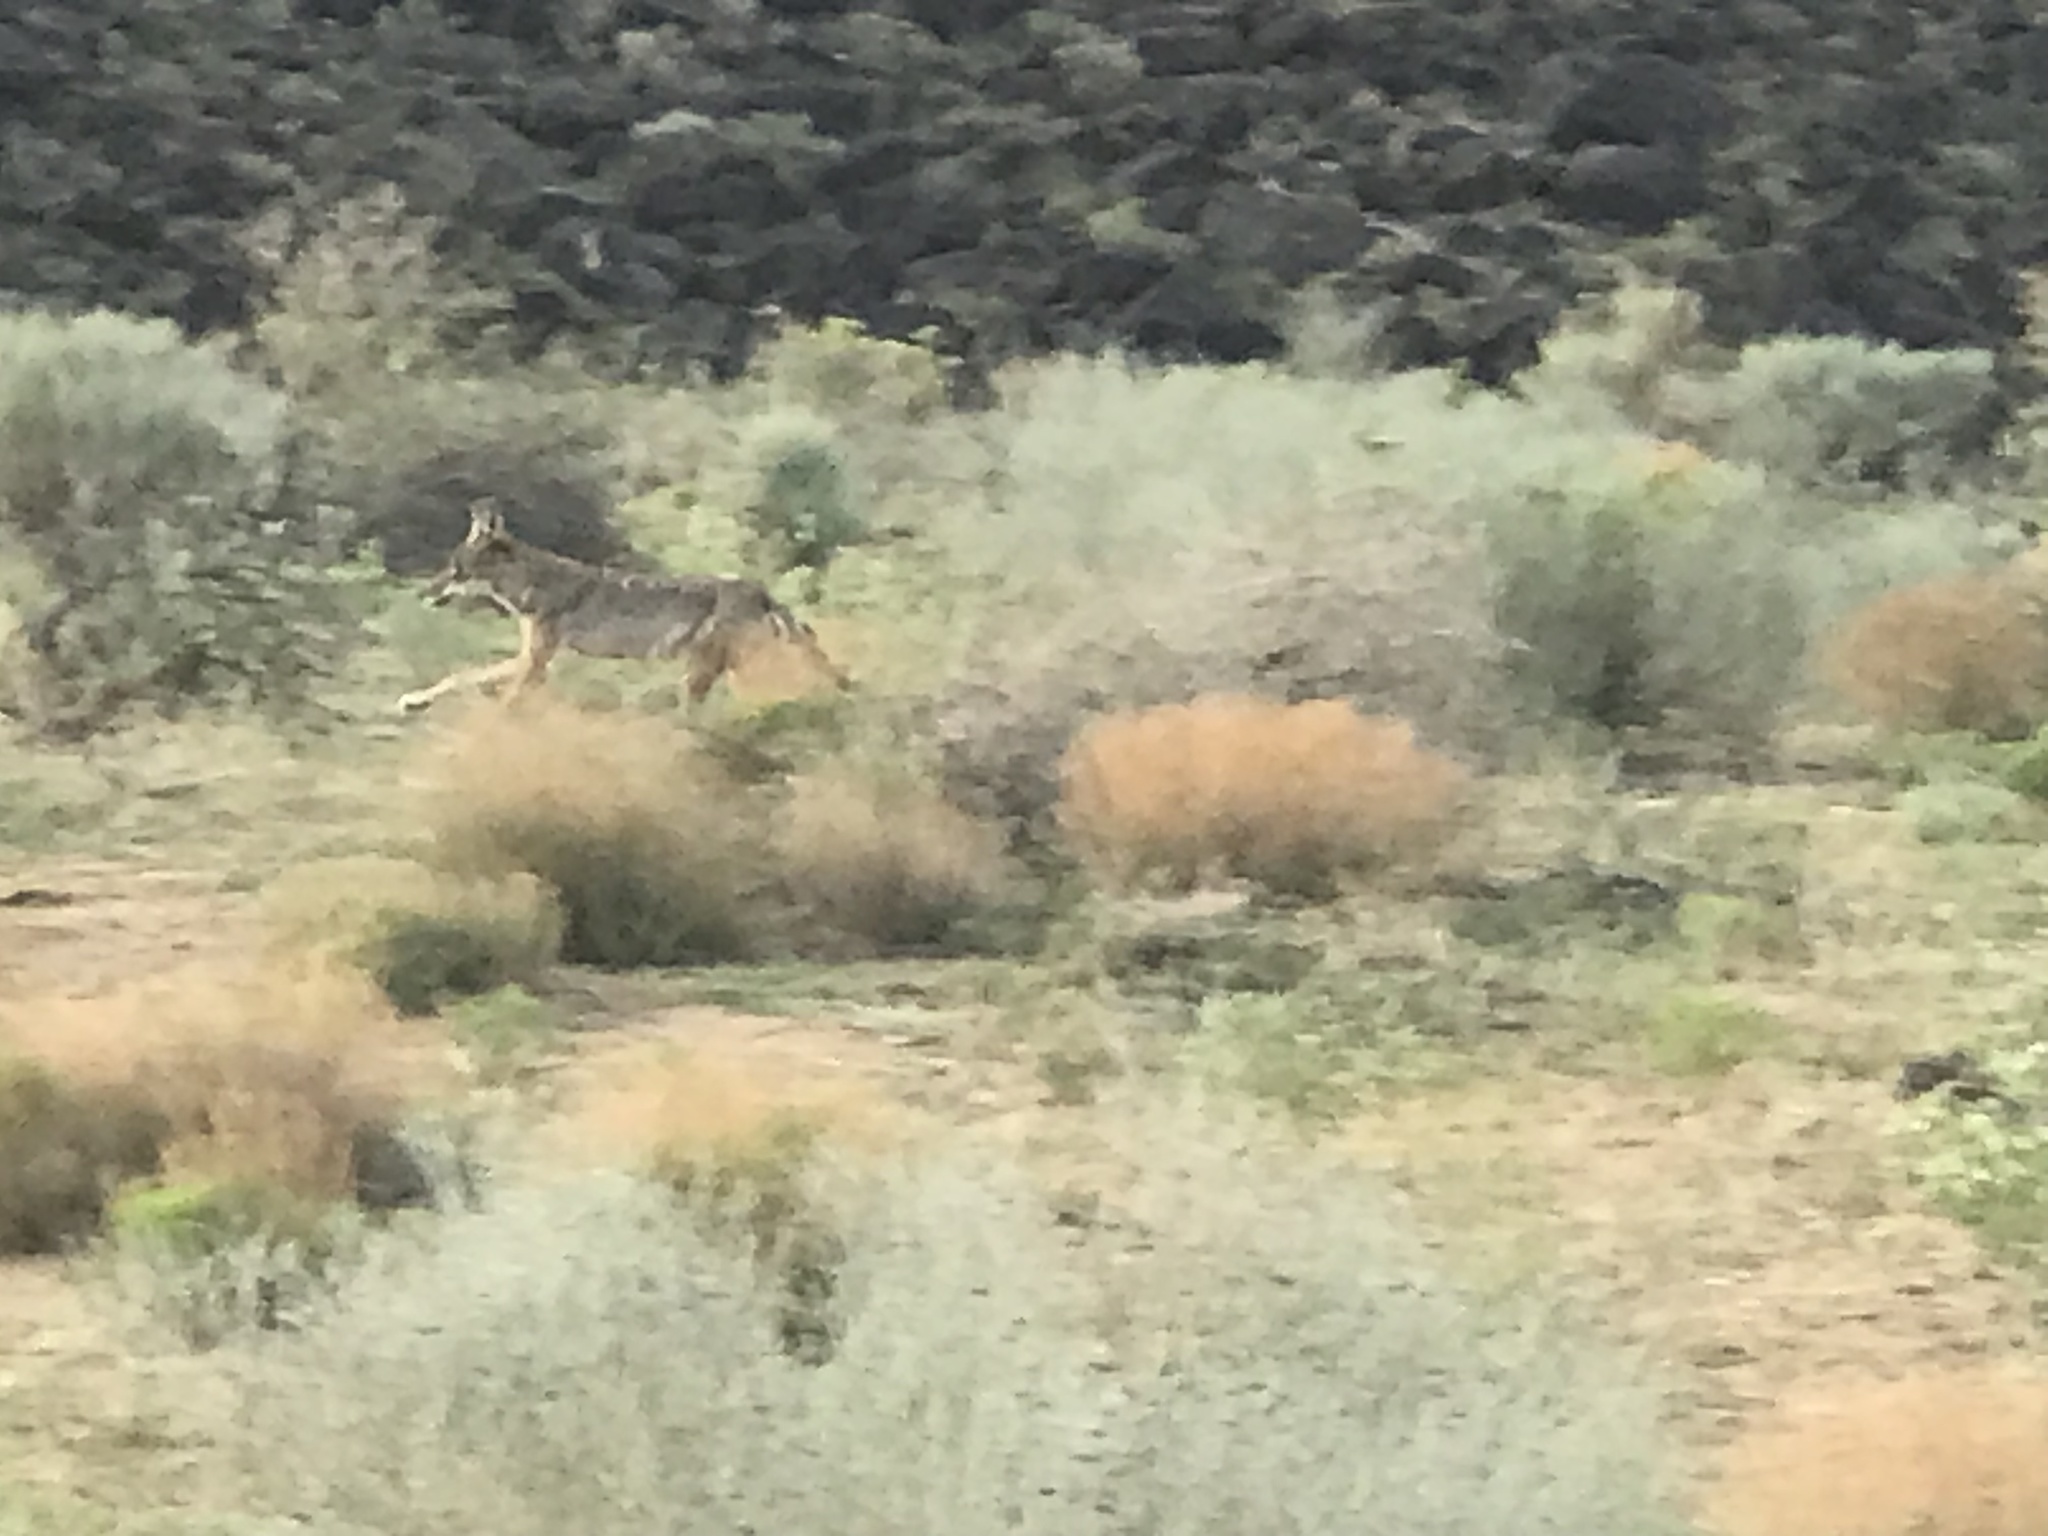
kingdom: Animalia
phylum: Chordata
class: Mammalia
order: Carnivora
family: Canidae
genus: Canis
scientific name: Canis latrans
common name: Coyote
